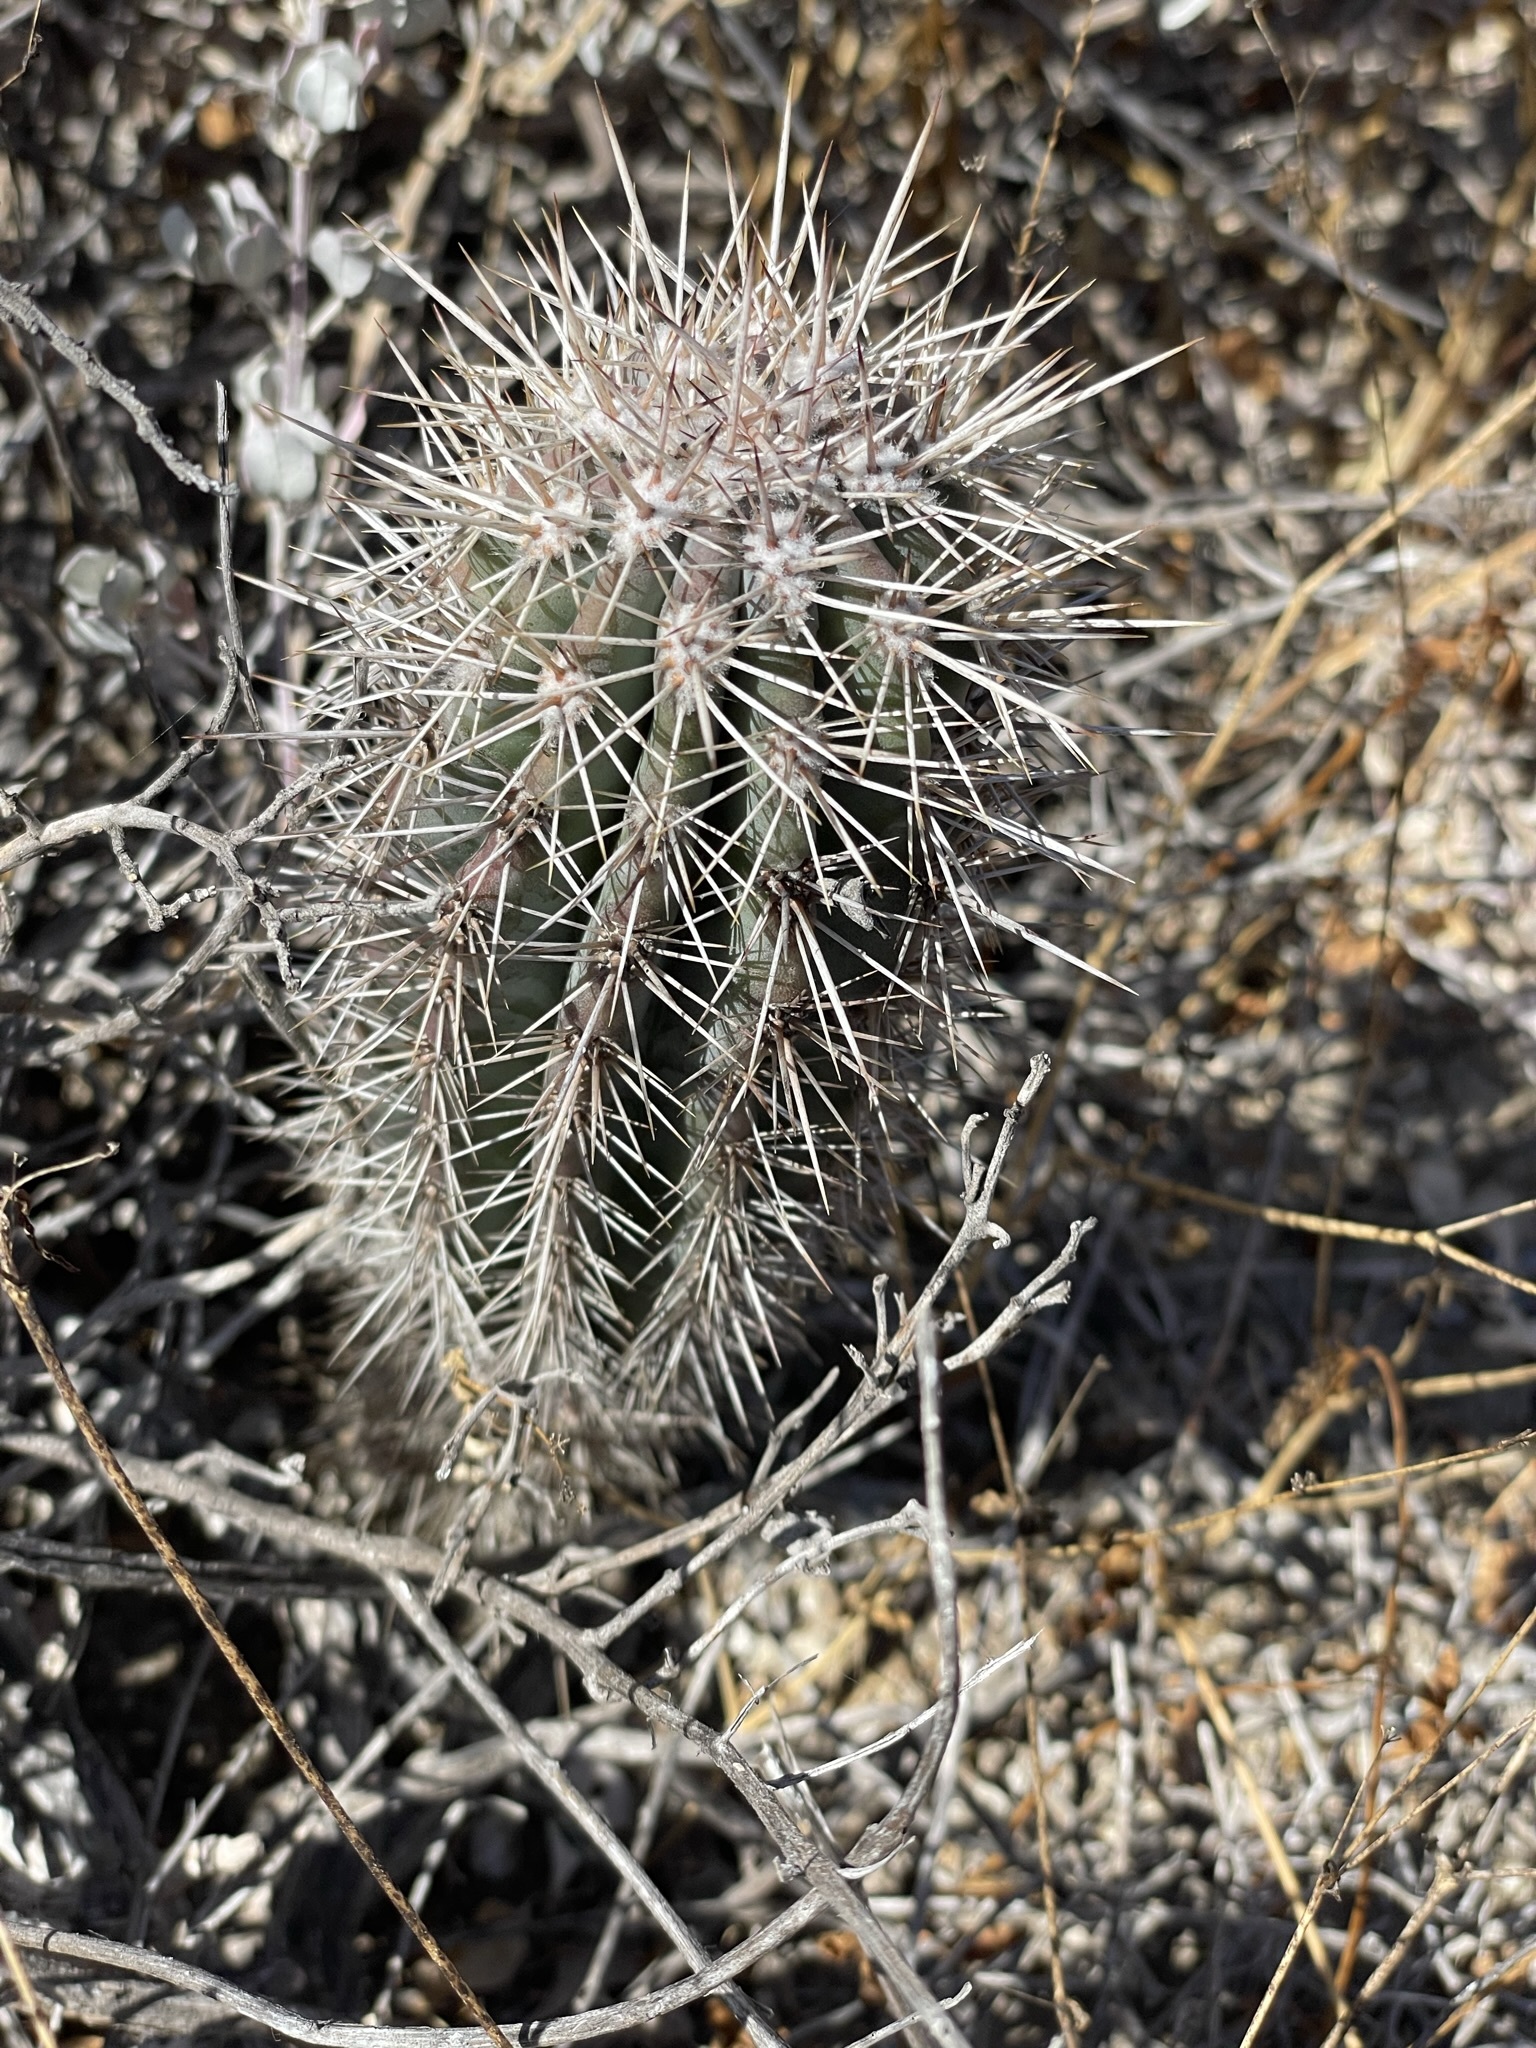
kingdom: Plantae
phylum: Tracheophyta
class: Magnoliopsida
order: Caryophyllales
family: Cactaceae
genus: Pachycereus
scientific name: Pachycereus pringlei
